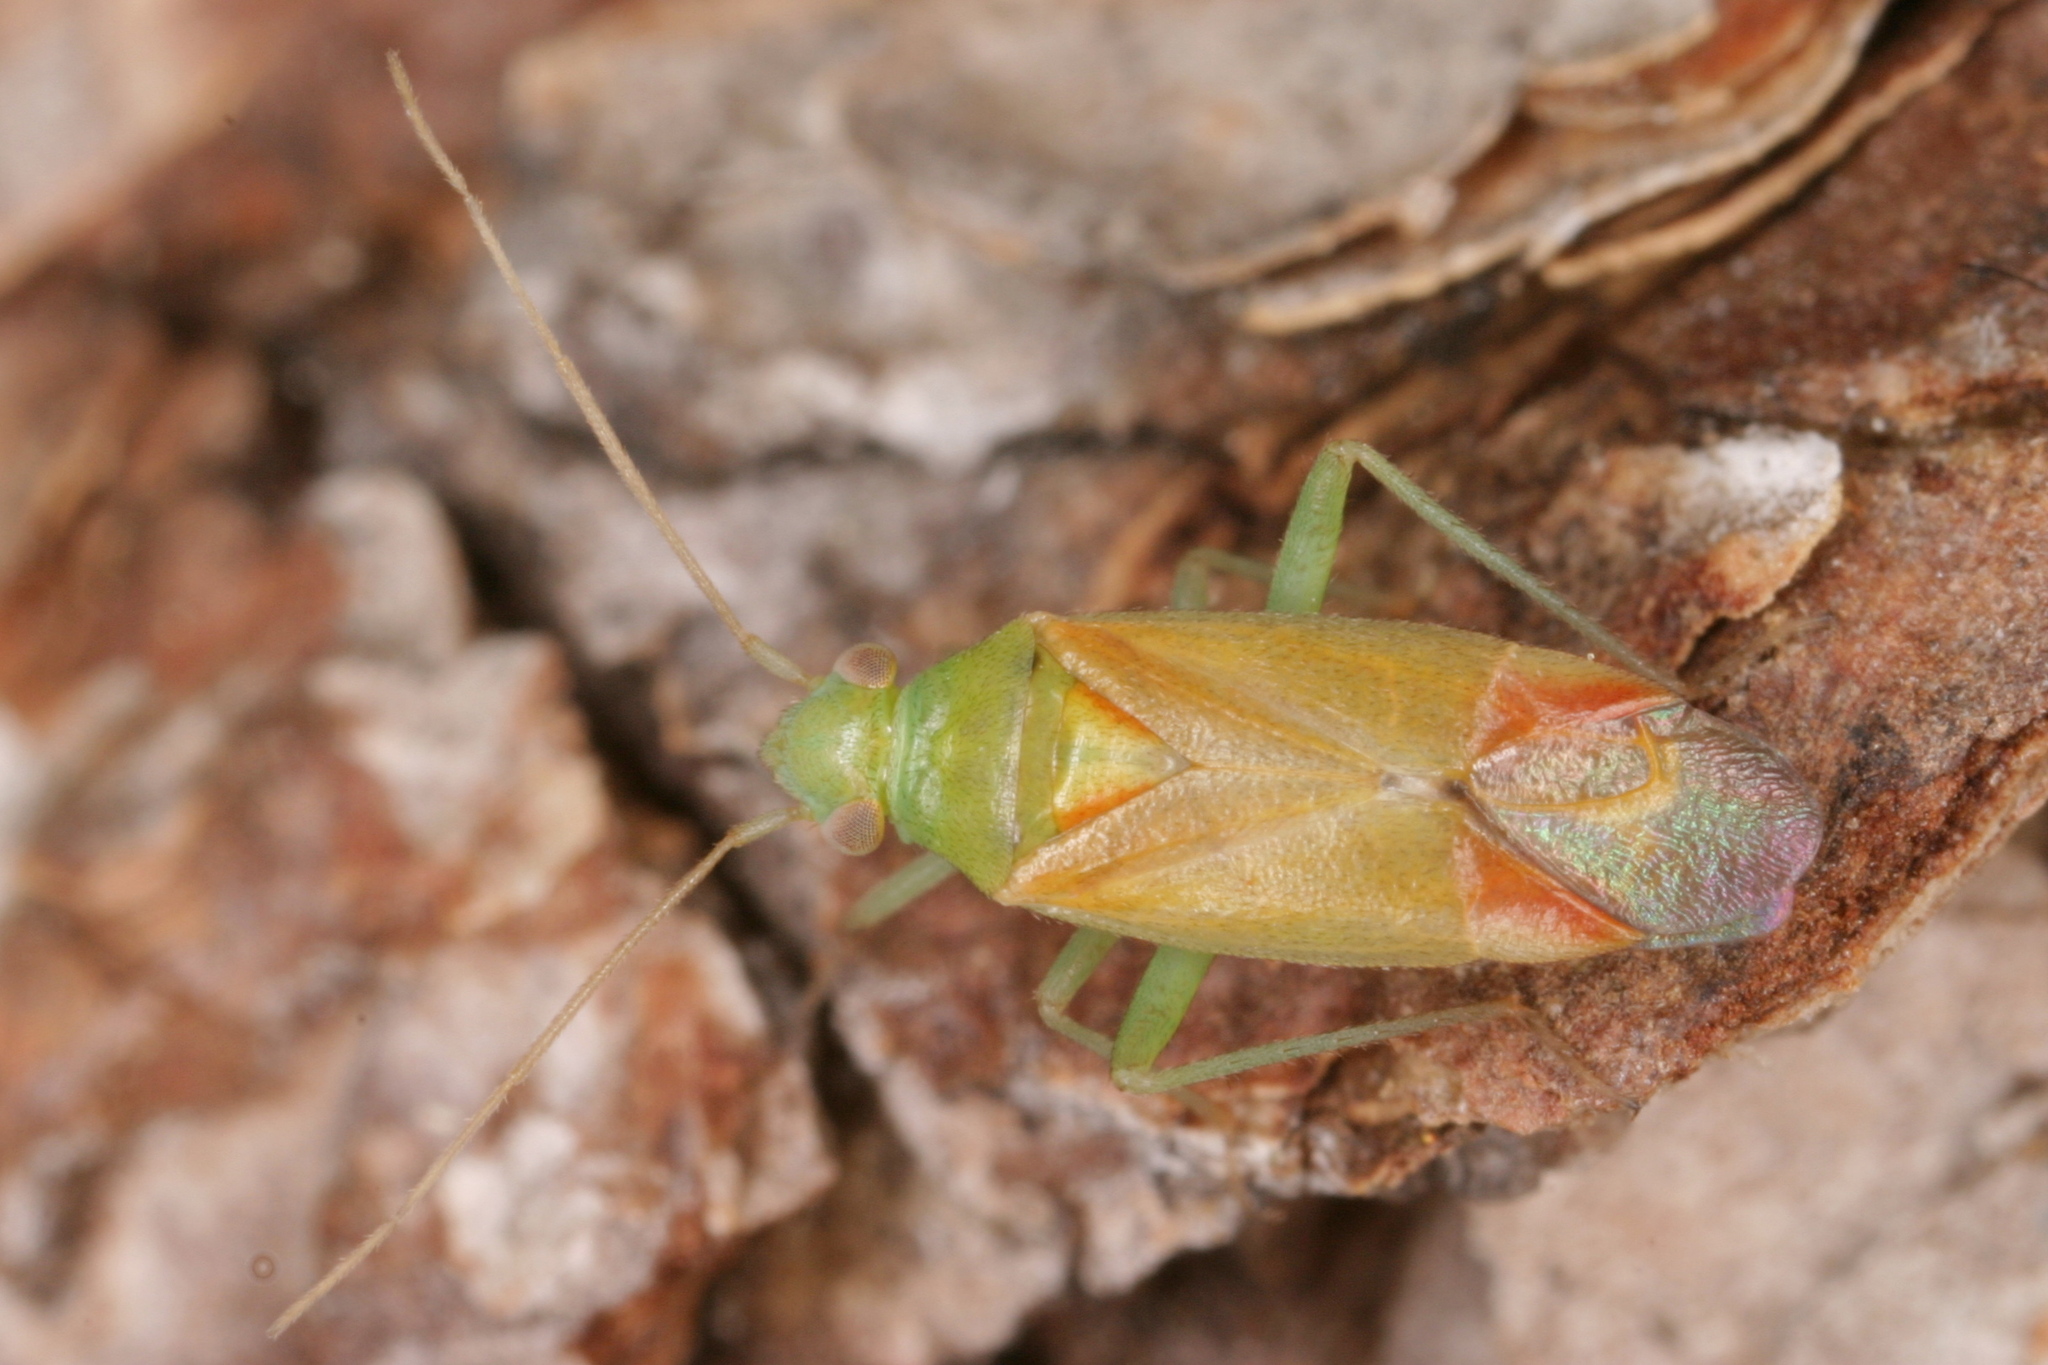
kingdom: Animalia
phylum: Arthropoda
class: Insecta
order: Hemiptera
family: Miridae
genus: Dichrooscytus
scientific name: Dichrooscytus intermedius
